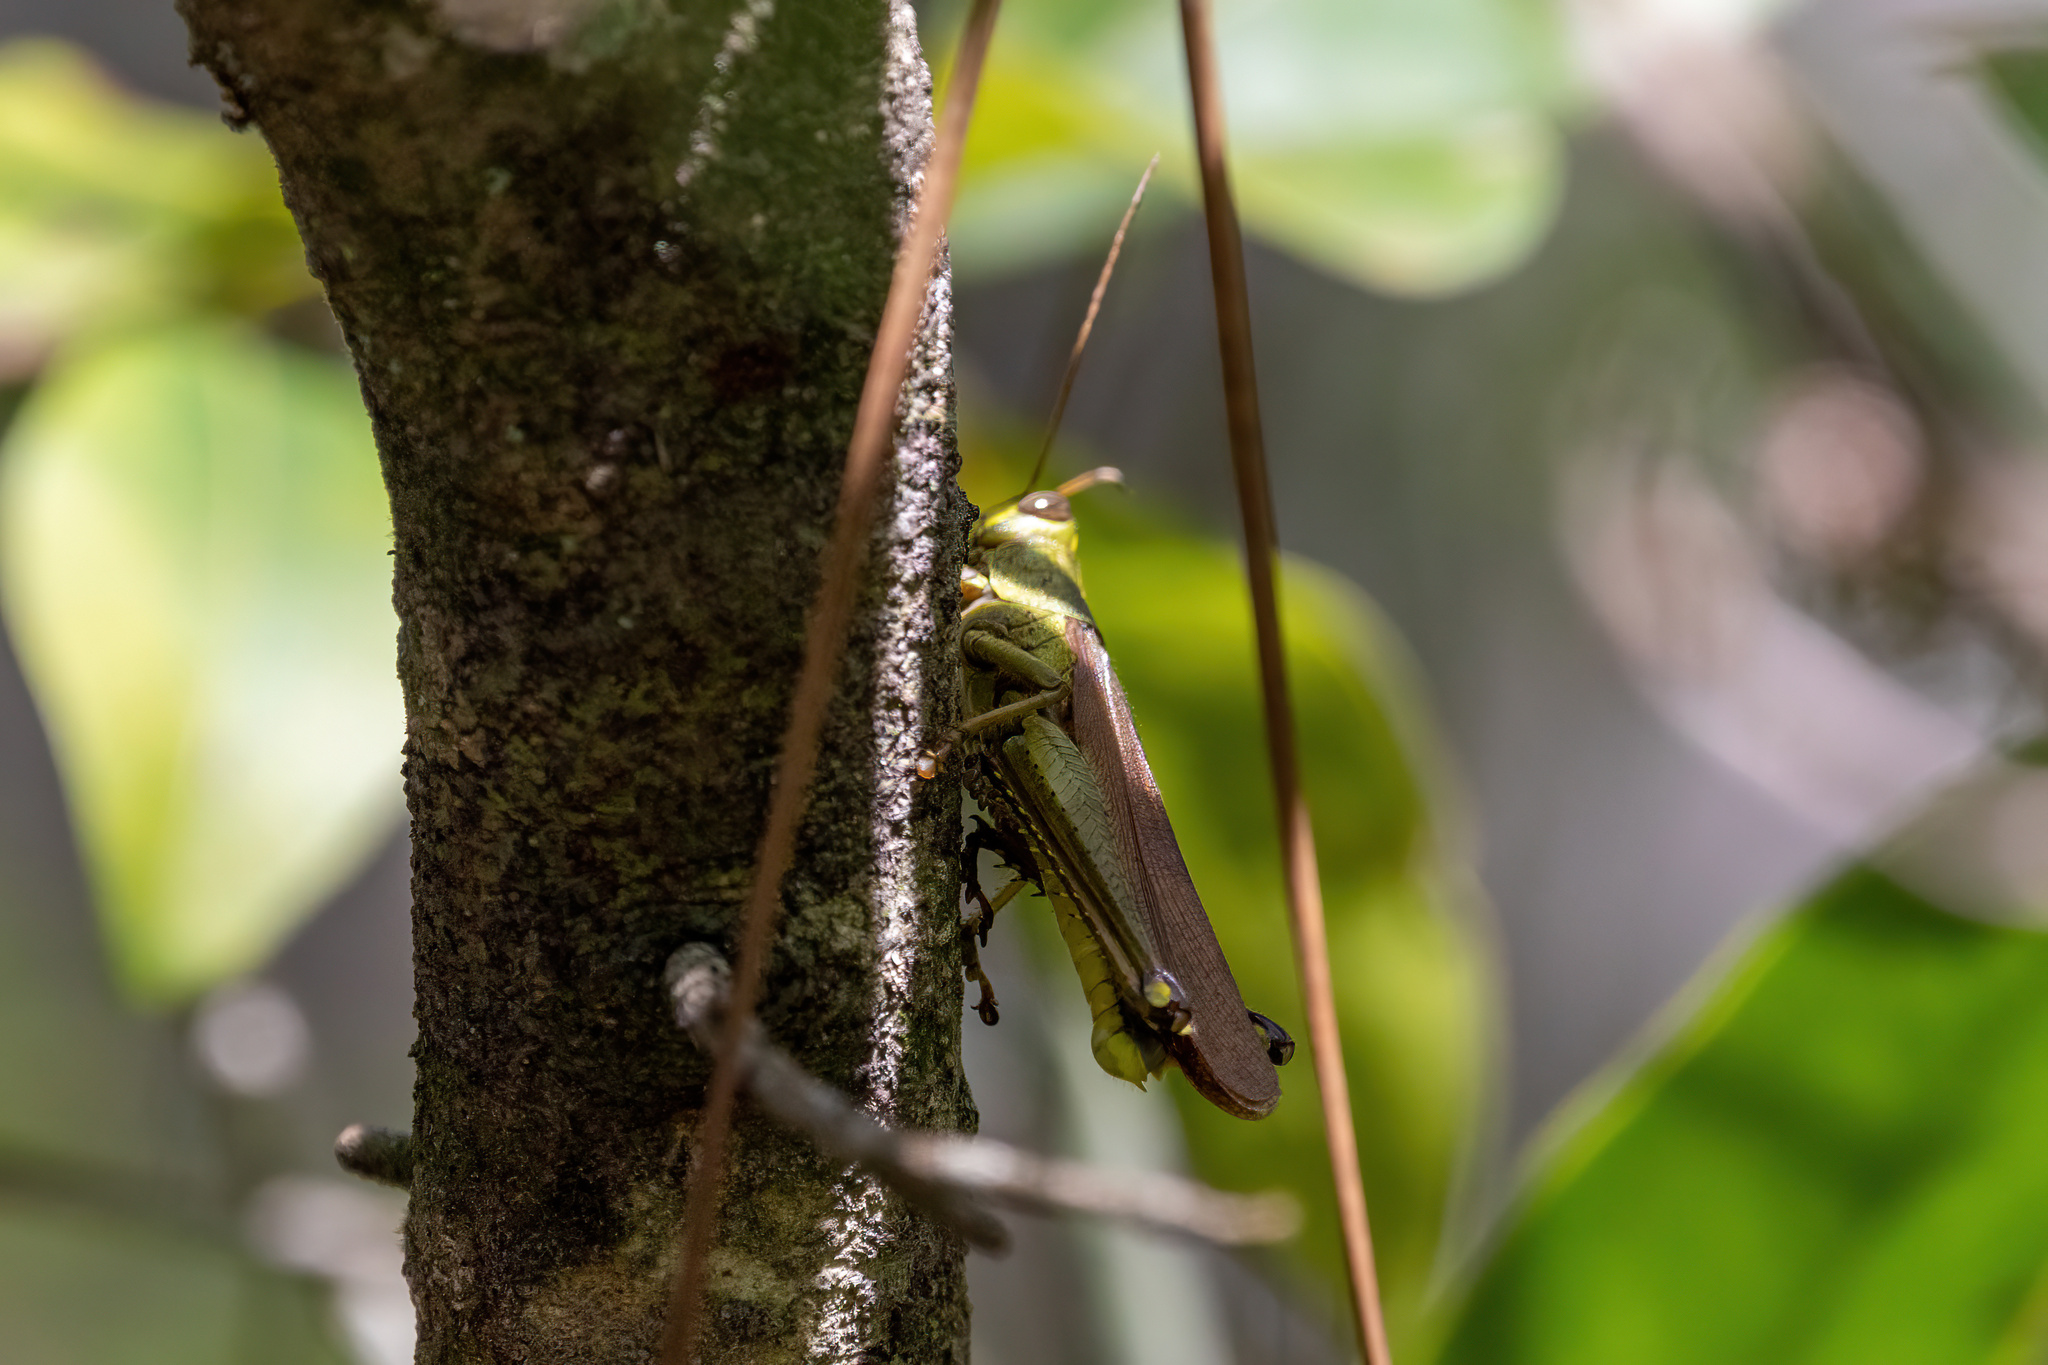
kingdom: Animalia
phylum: Arthropoda
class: Insecta
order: Orthoptera
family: Acrididae
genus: Schistocerca
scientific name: Schistocerca alutacea
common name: Leather-colored bird locust
